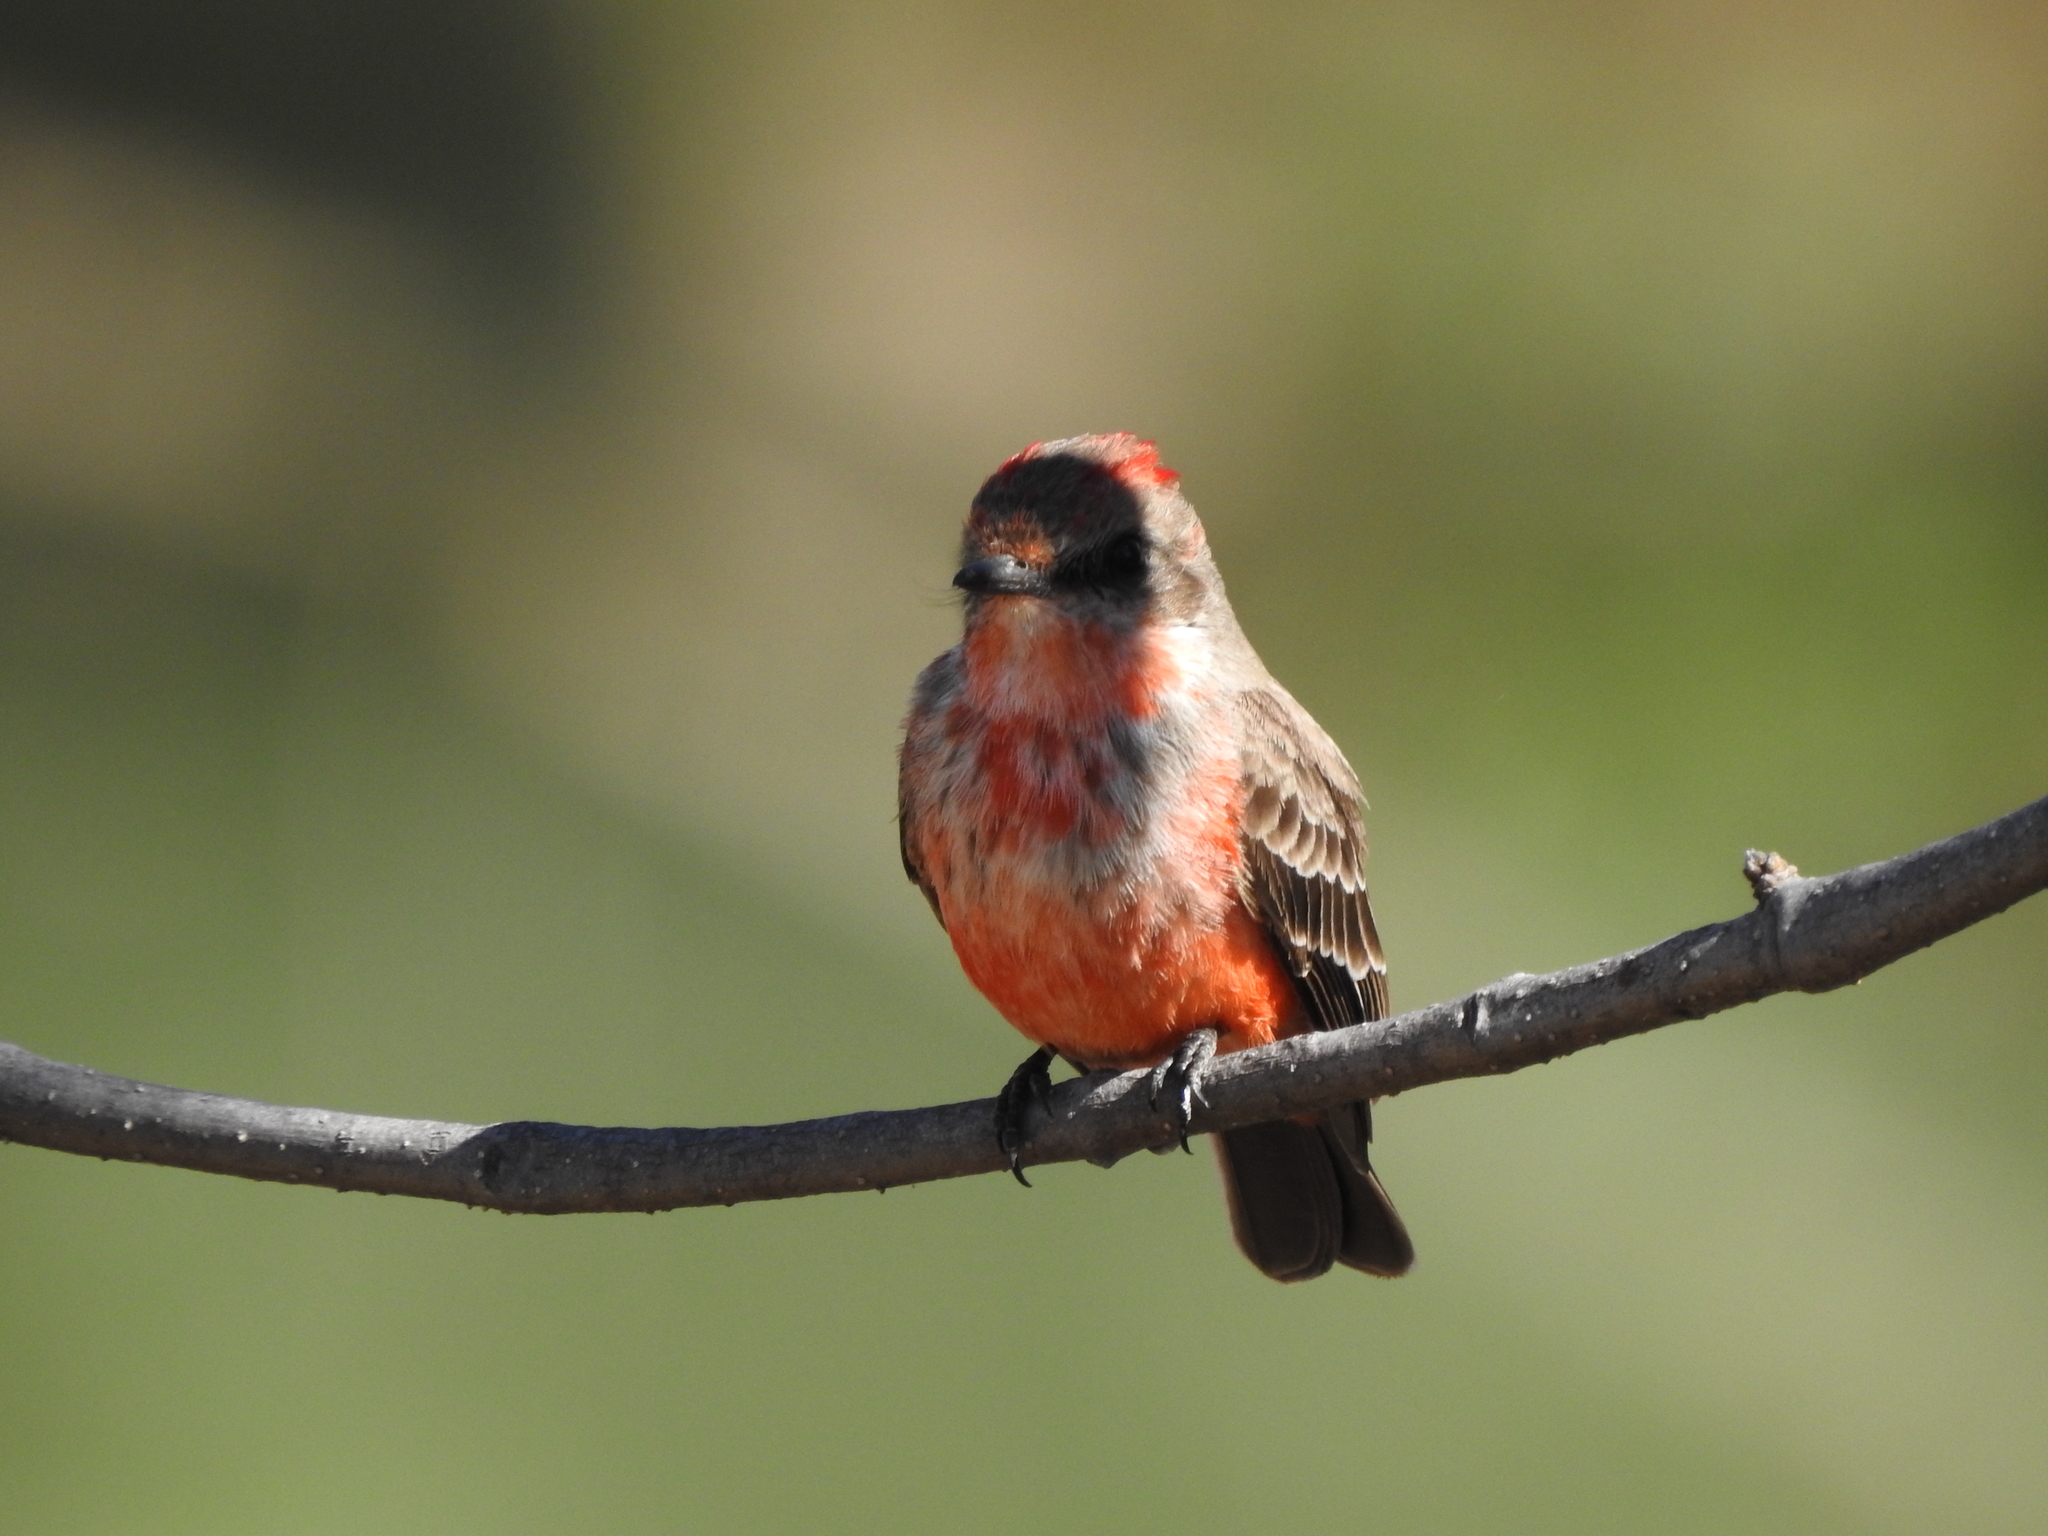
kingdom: Animalia
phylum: Chordata
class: Aves
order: Passeriformes
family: Tyrannidae
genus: Pyrocephalus
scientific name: Pyrocephalus rubinus
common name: Vermilion flycatcher
